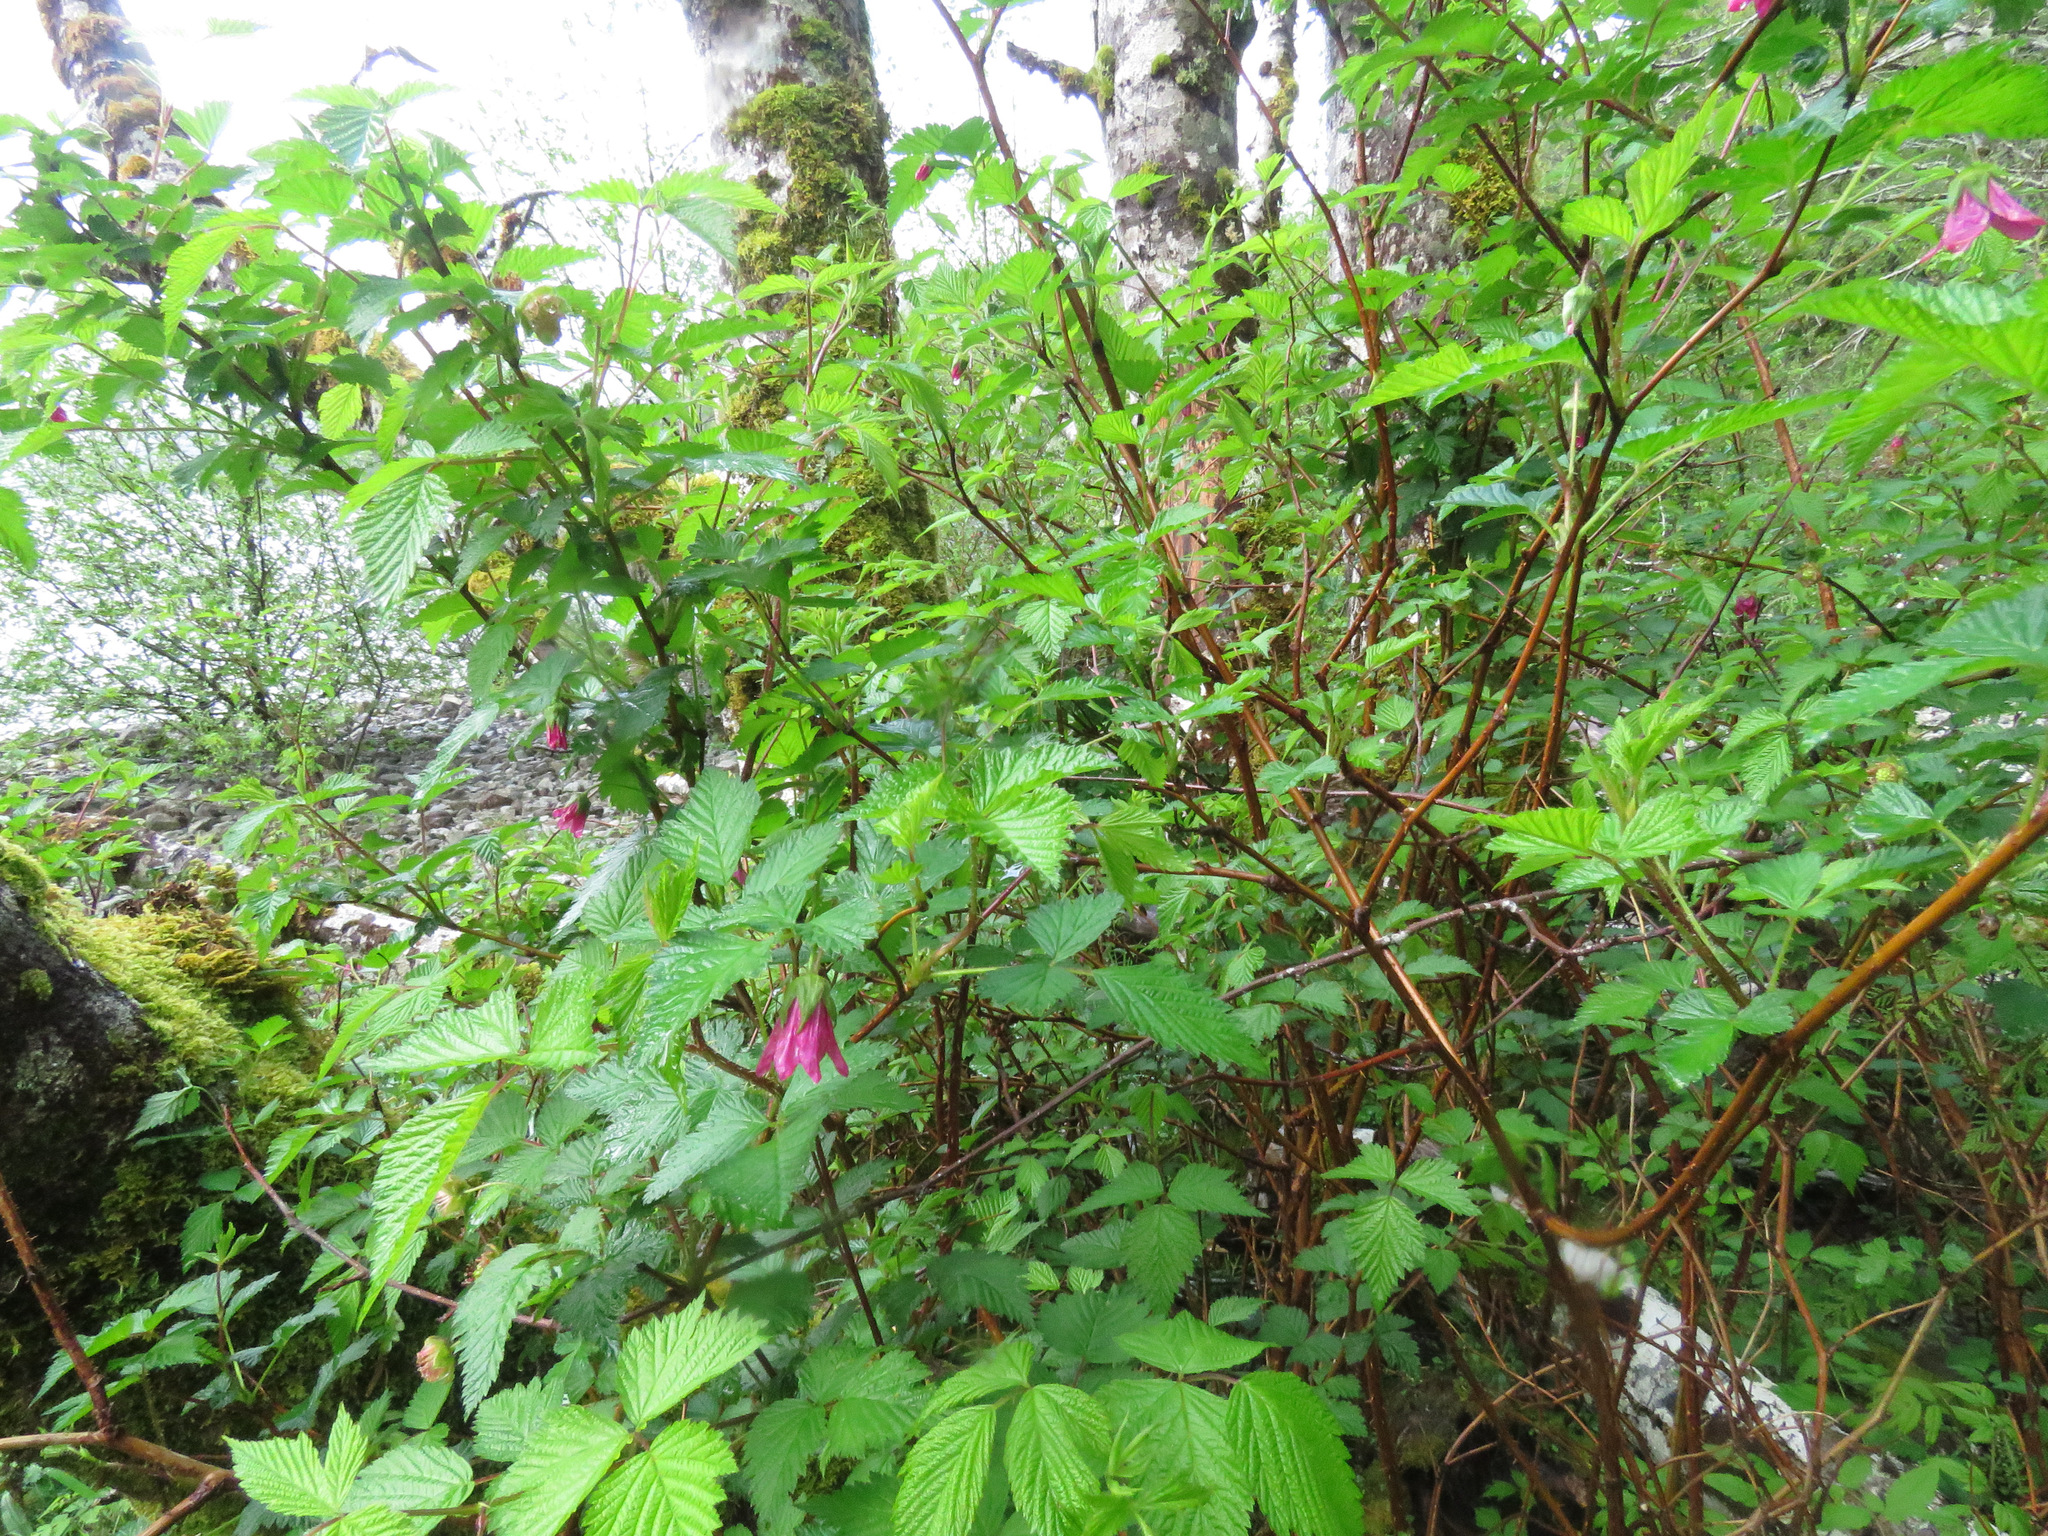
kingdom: Plantae
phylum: Tracheophyta
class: Magnoliopsida
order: Rosales
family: Rosaceae
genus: Rubus
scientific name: Rubus spectabilis
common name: Salmonberry
